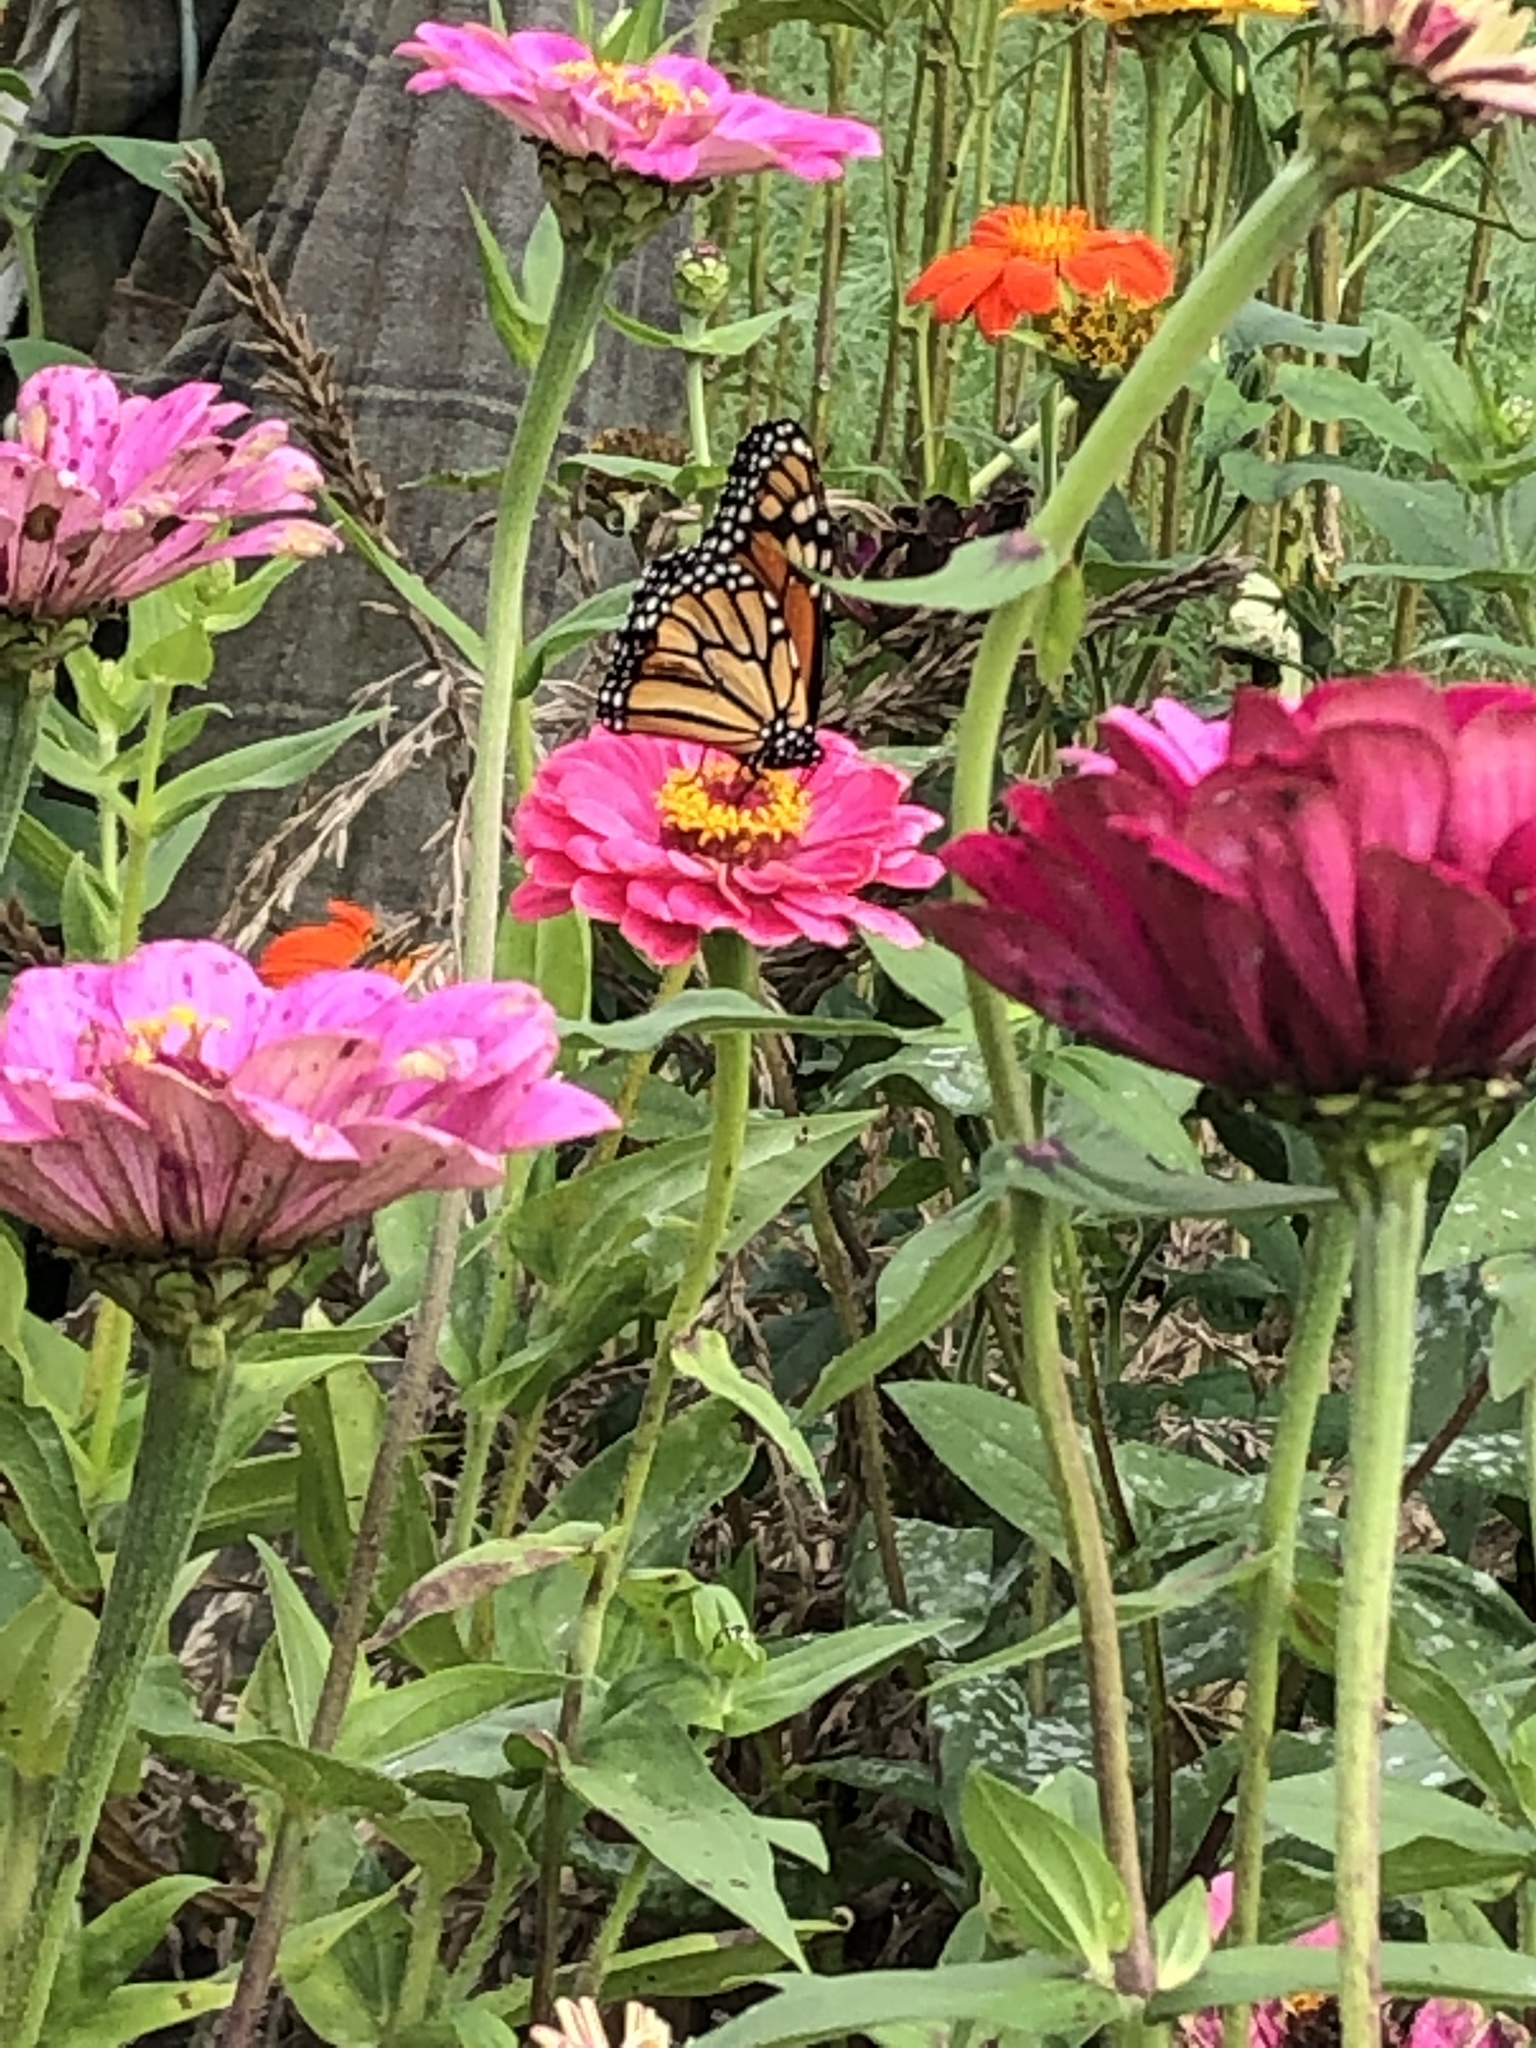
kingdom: Animalia
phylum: Arthropoda
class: Insecta
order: Lepidoptera
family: Nymphalidae
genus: Danaus
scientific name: Danaus plexippus
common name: Monarch
